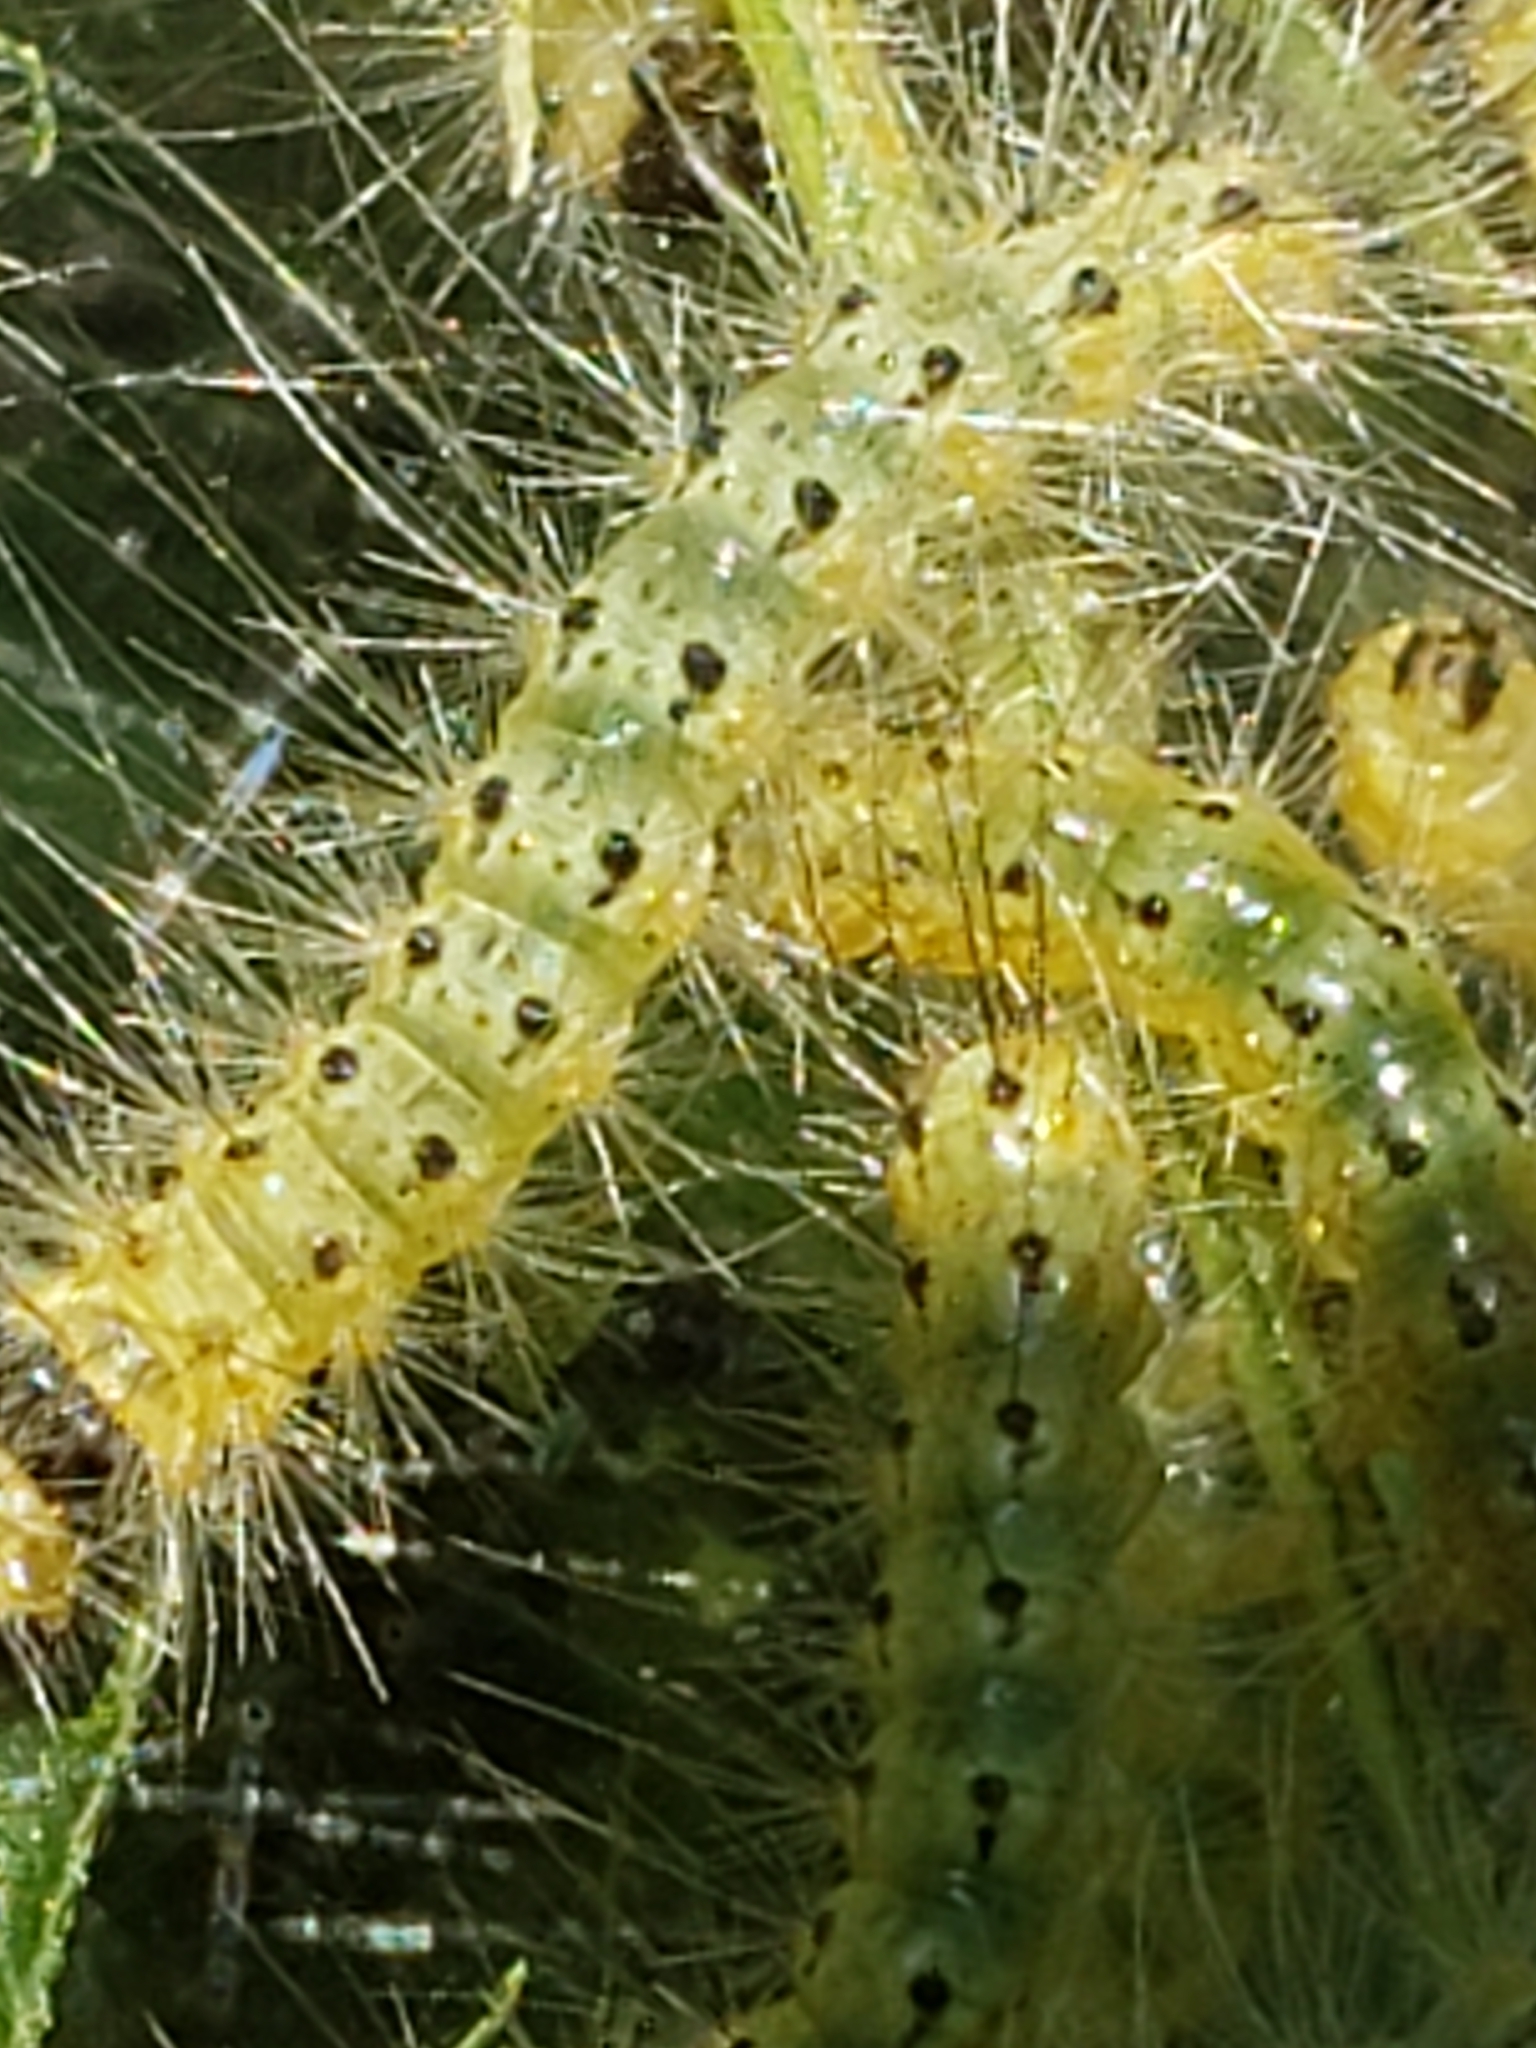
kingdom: Animalia
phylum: Arthropoda
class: Insecta
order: Lepidoptera
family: Erebidae
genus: Hyphantria
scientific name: Hyphantria cunea
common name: American white moth
